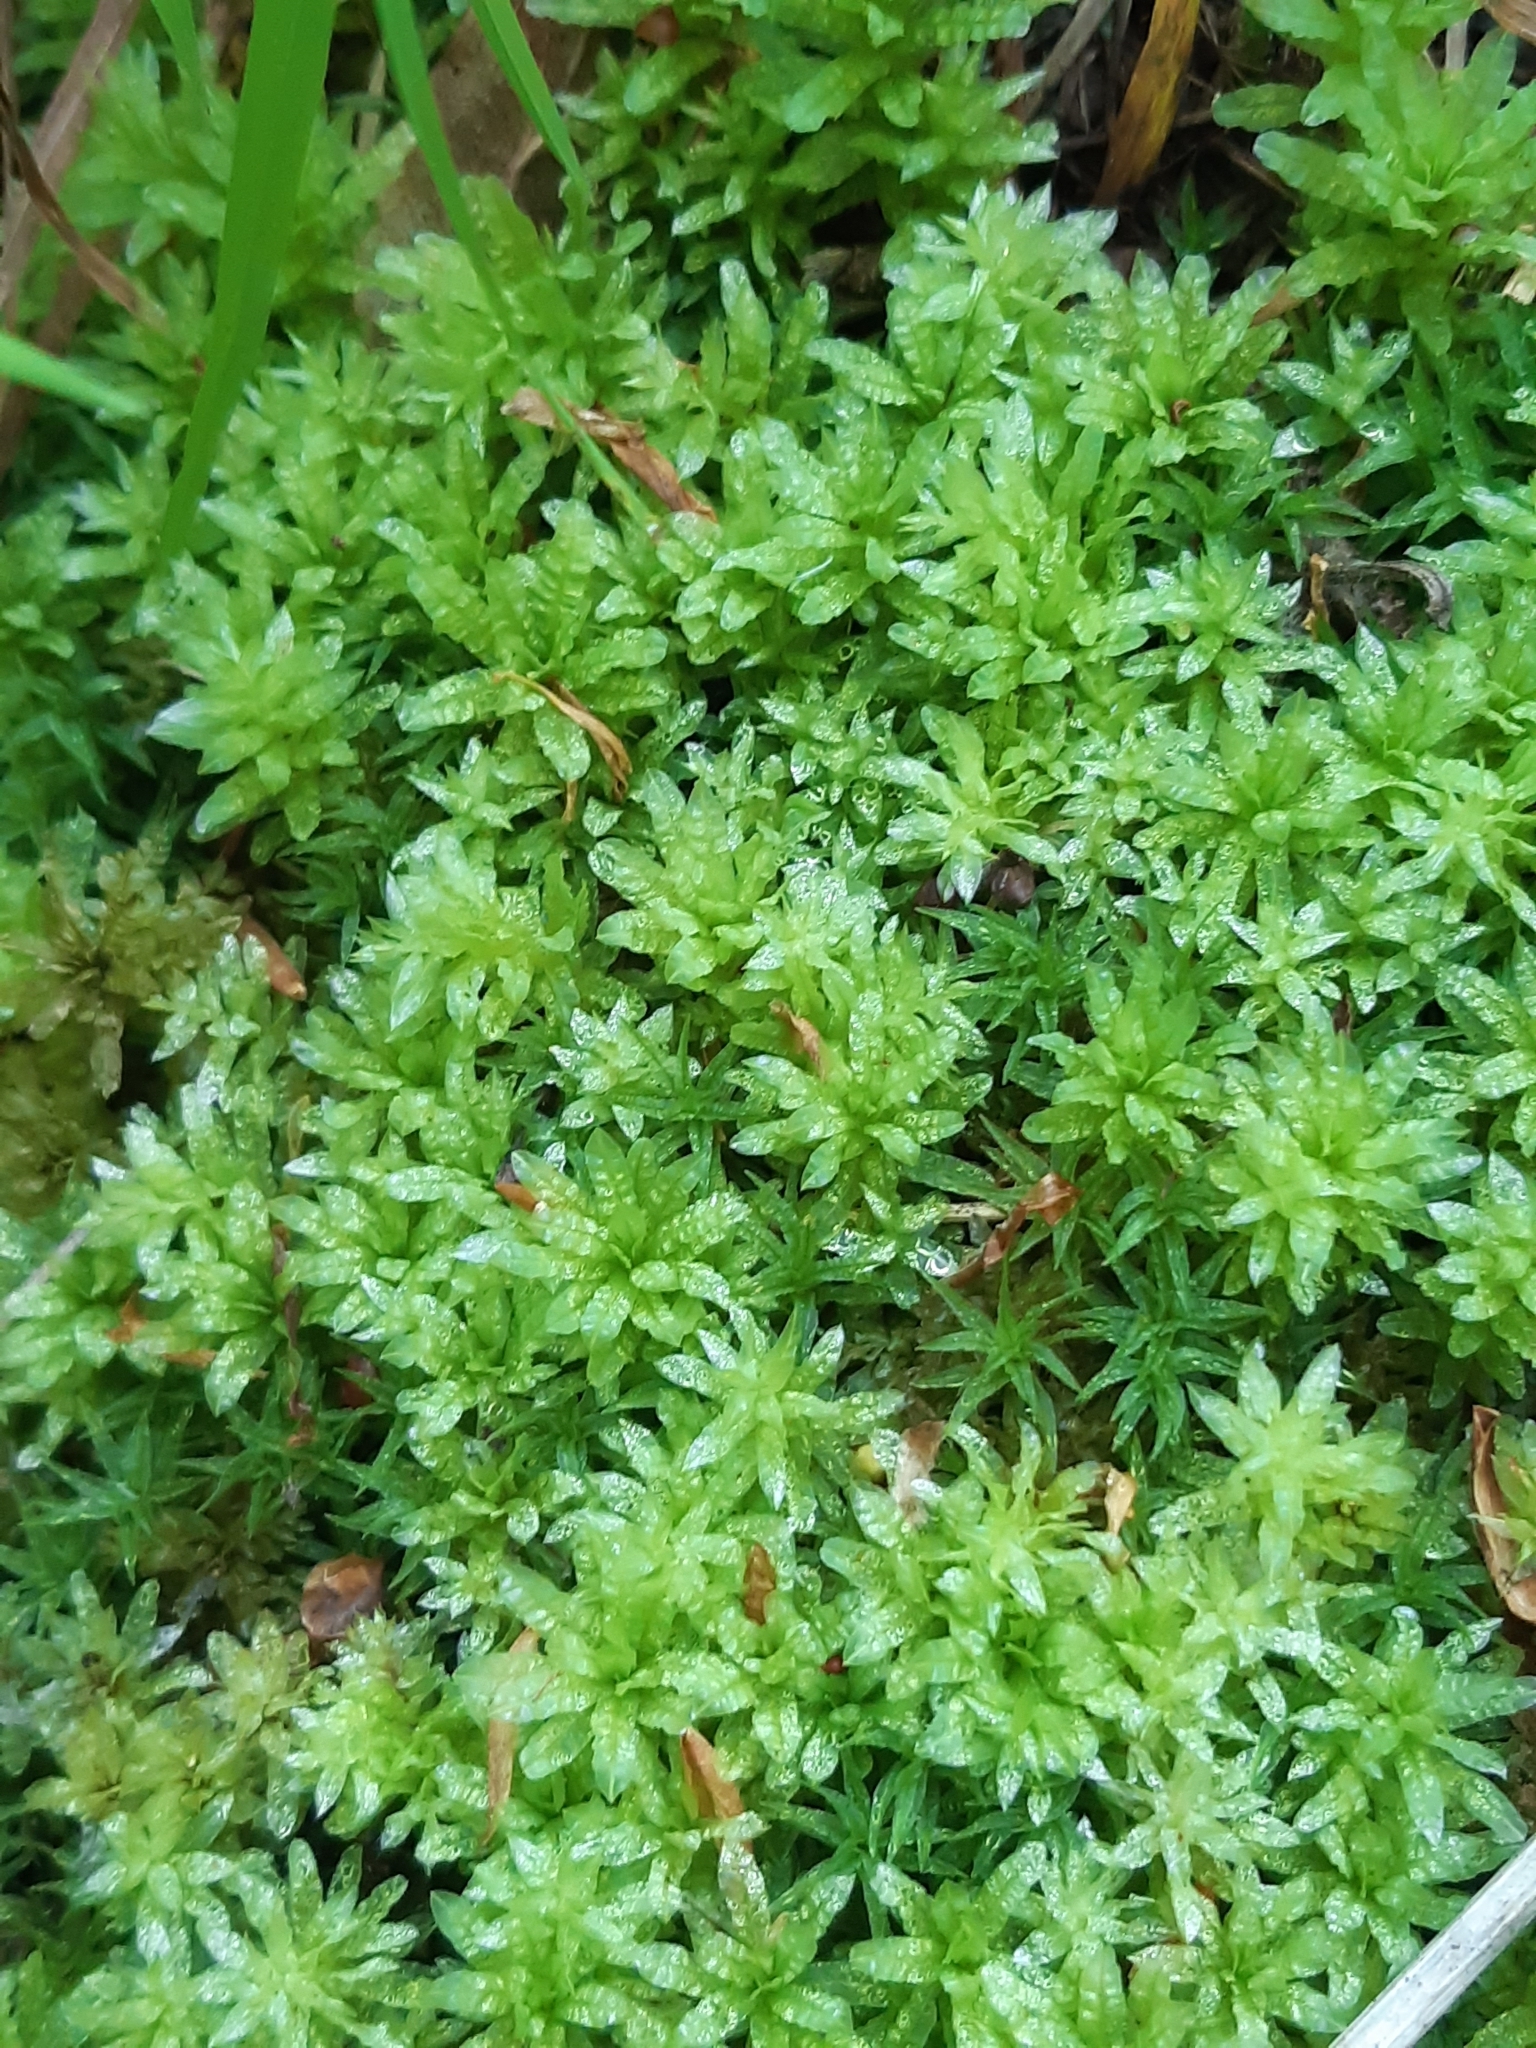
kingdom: Plantae
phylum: Bryophyta
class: Bryopsida
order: Bryales
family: Mniaceae
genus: Plagiomnium
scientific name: Plagiomnium undulatum
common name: Hart's-tongue thyme-moss
